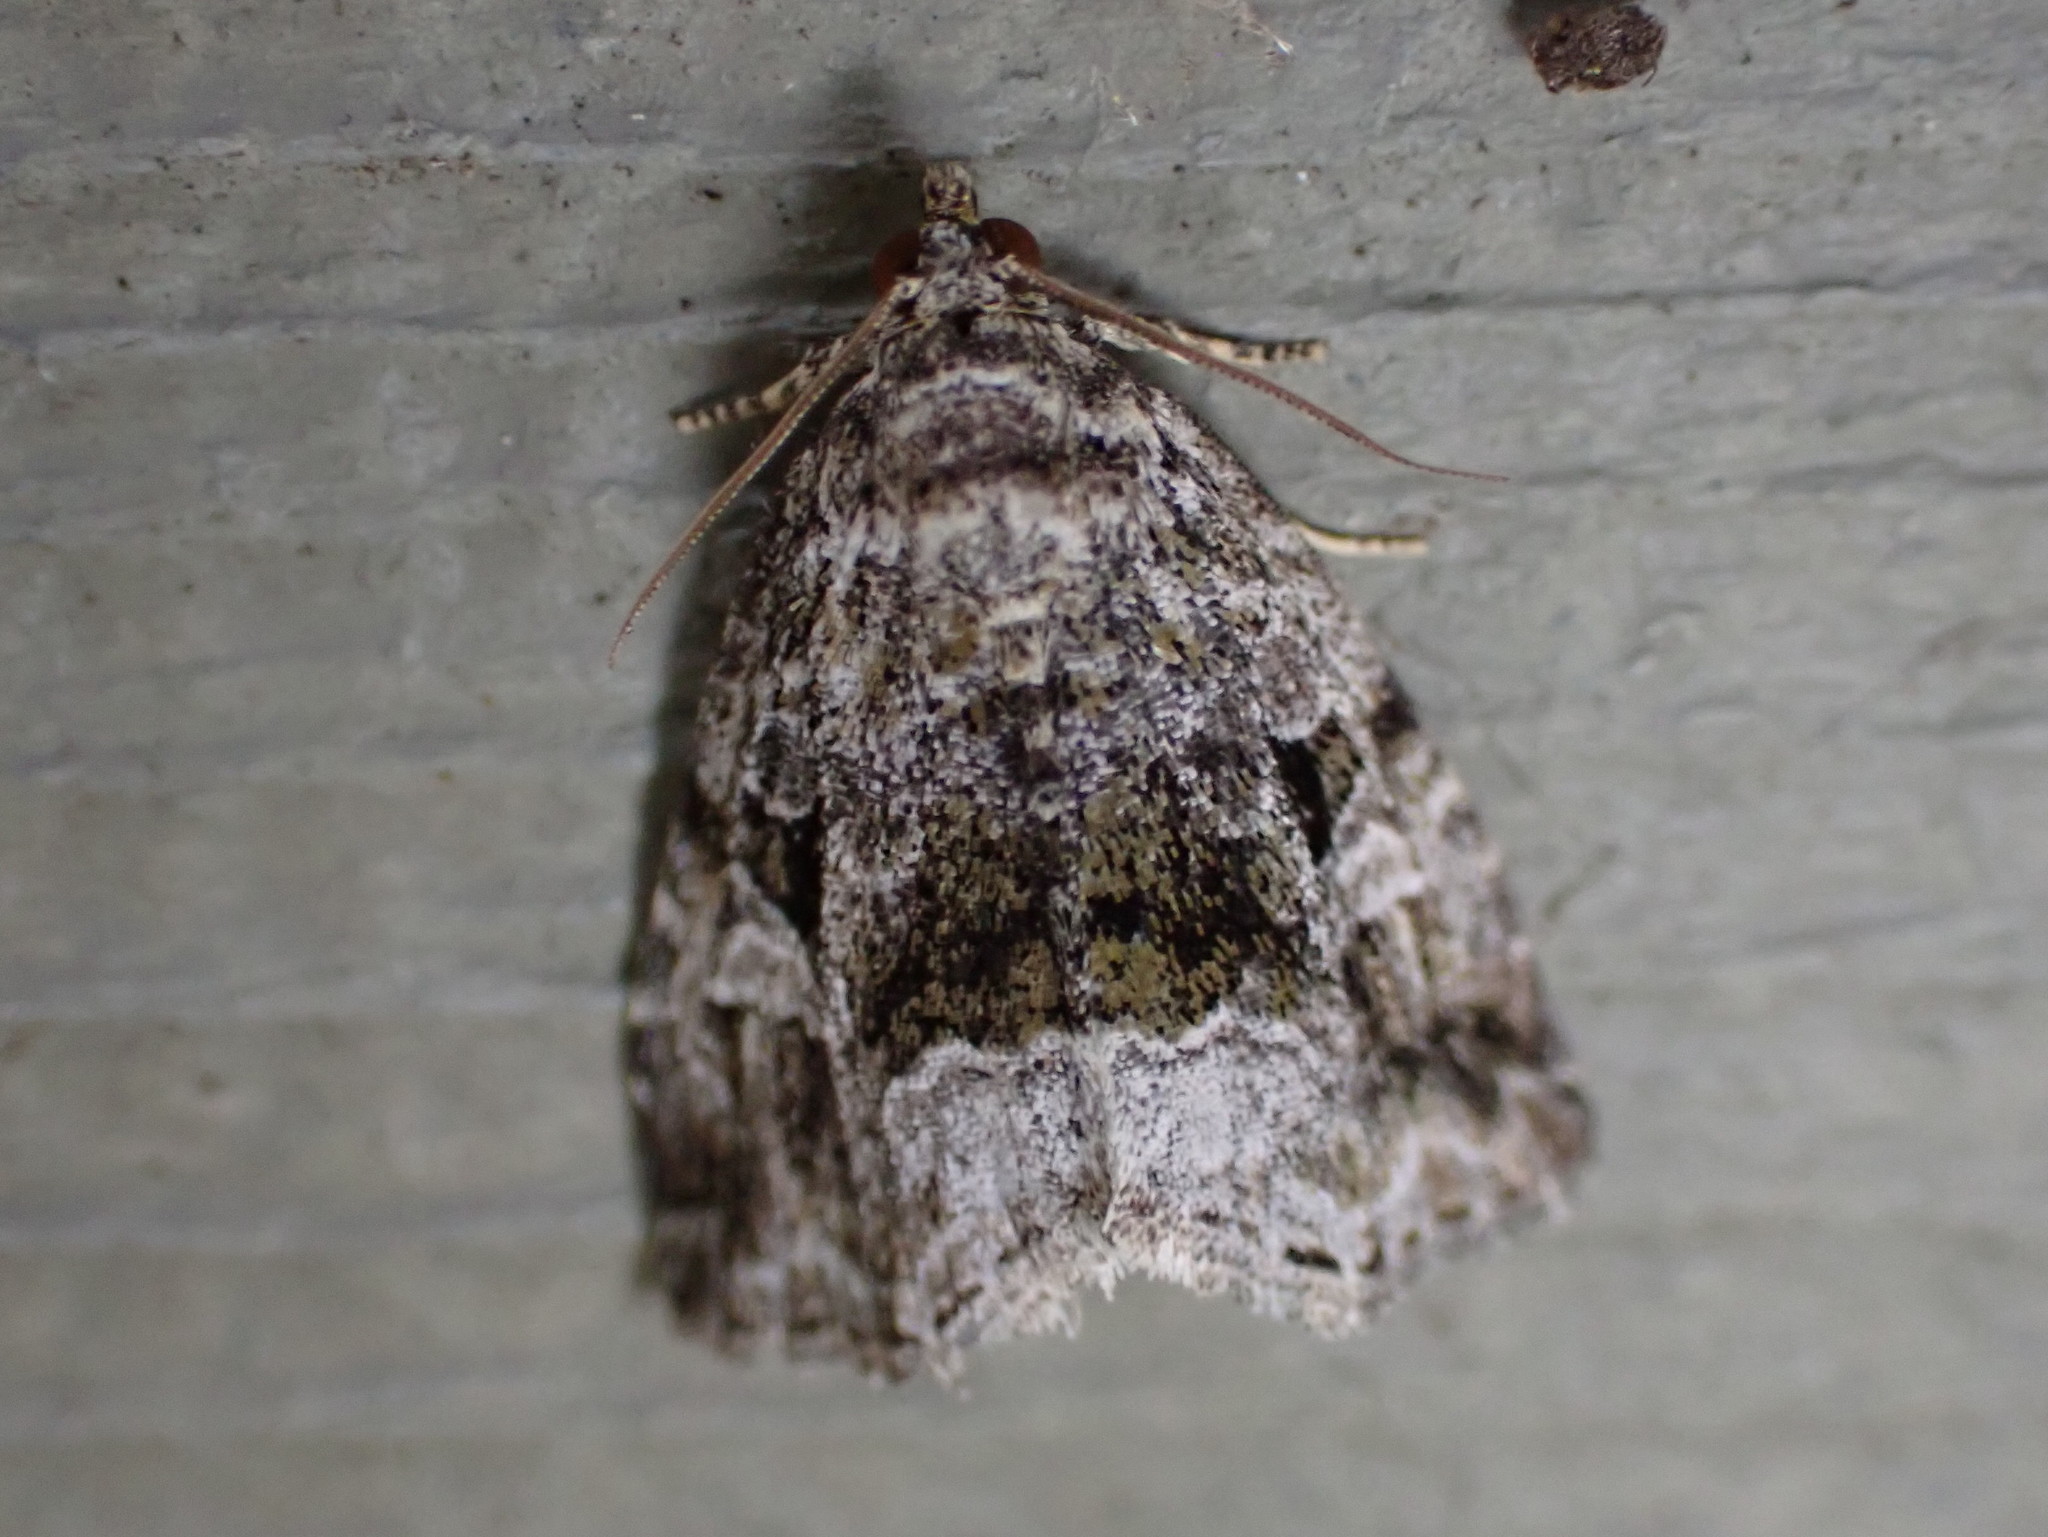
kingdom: Animalia
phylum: Arthropoda
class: Insecta
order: Lepidoptera
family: Noctuidae
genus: Protodeltote
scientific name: Protodeltote muscosula
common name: Large mossy glyph
